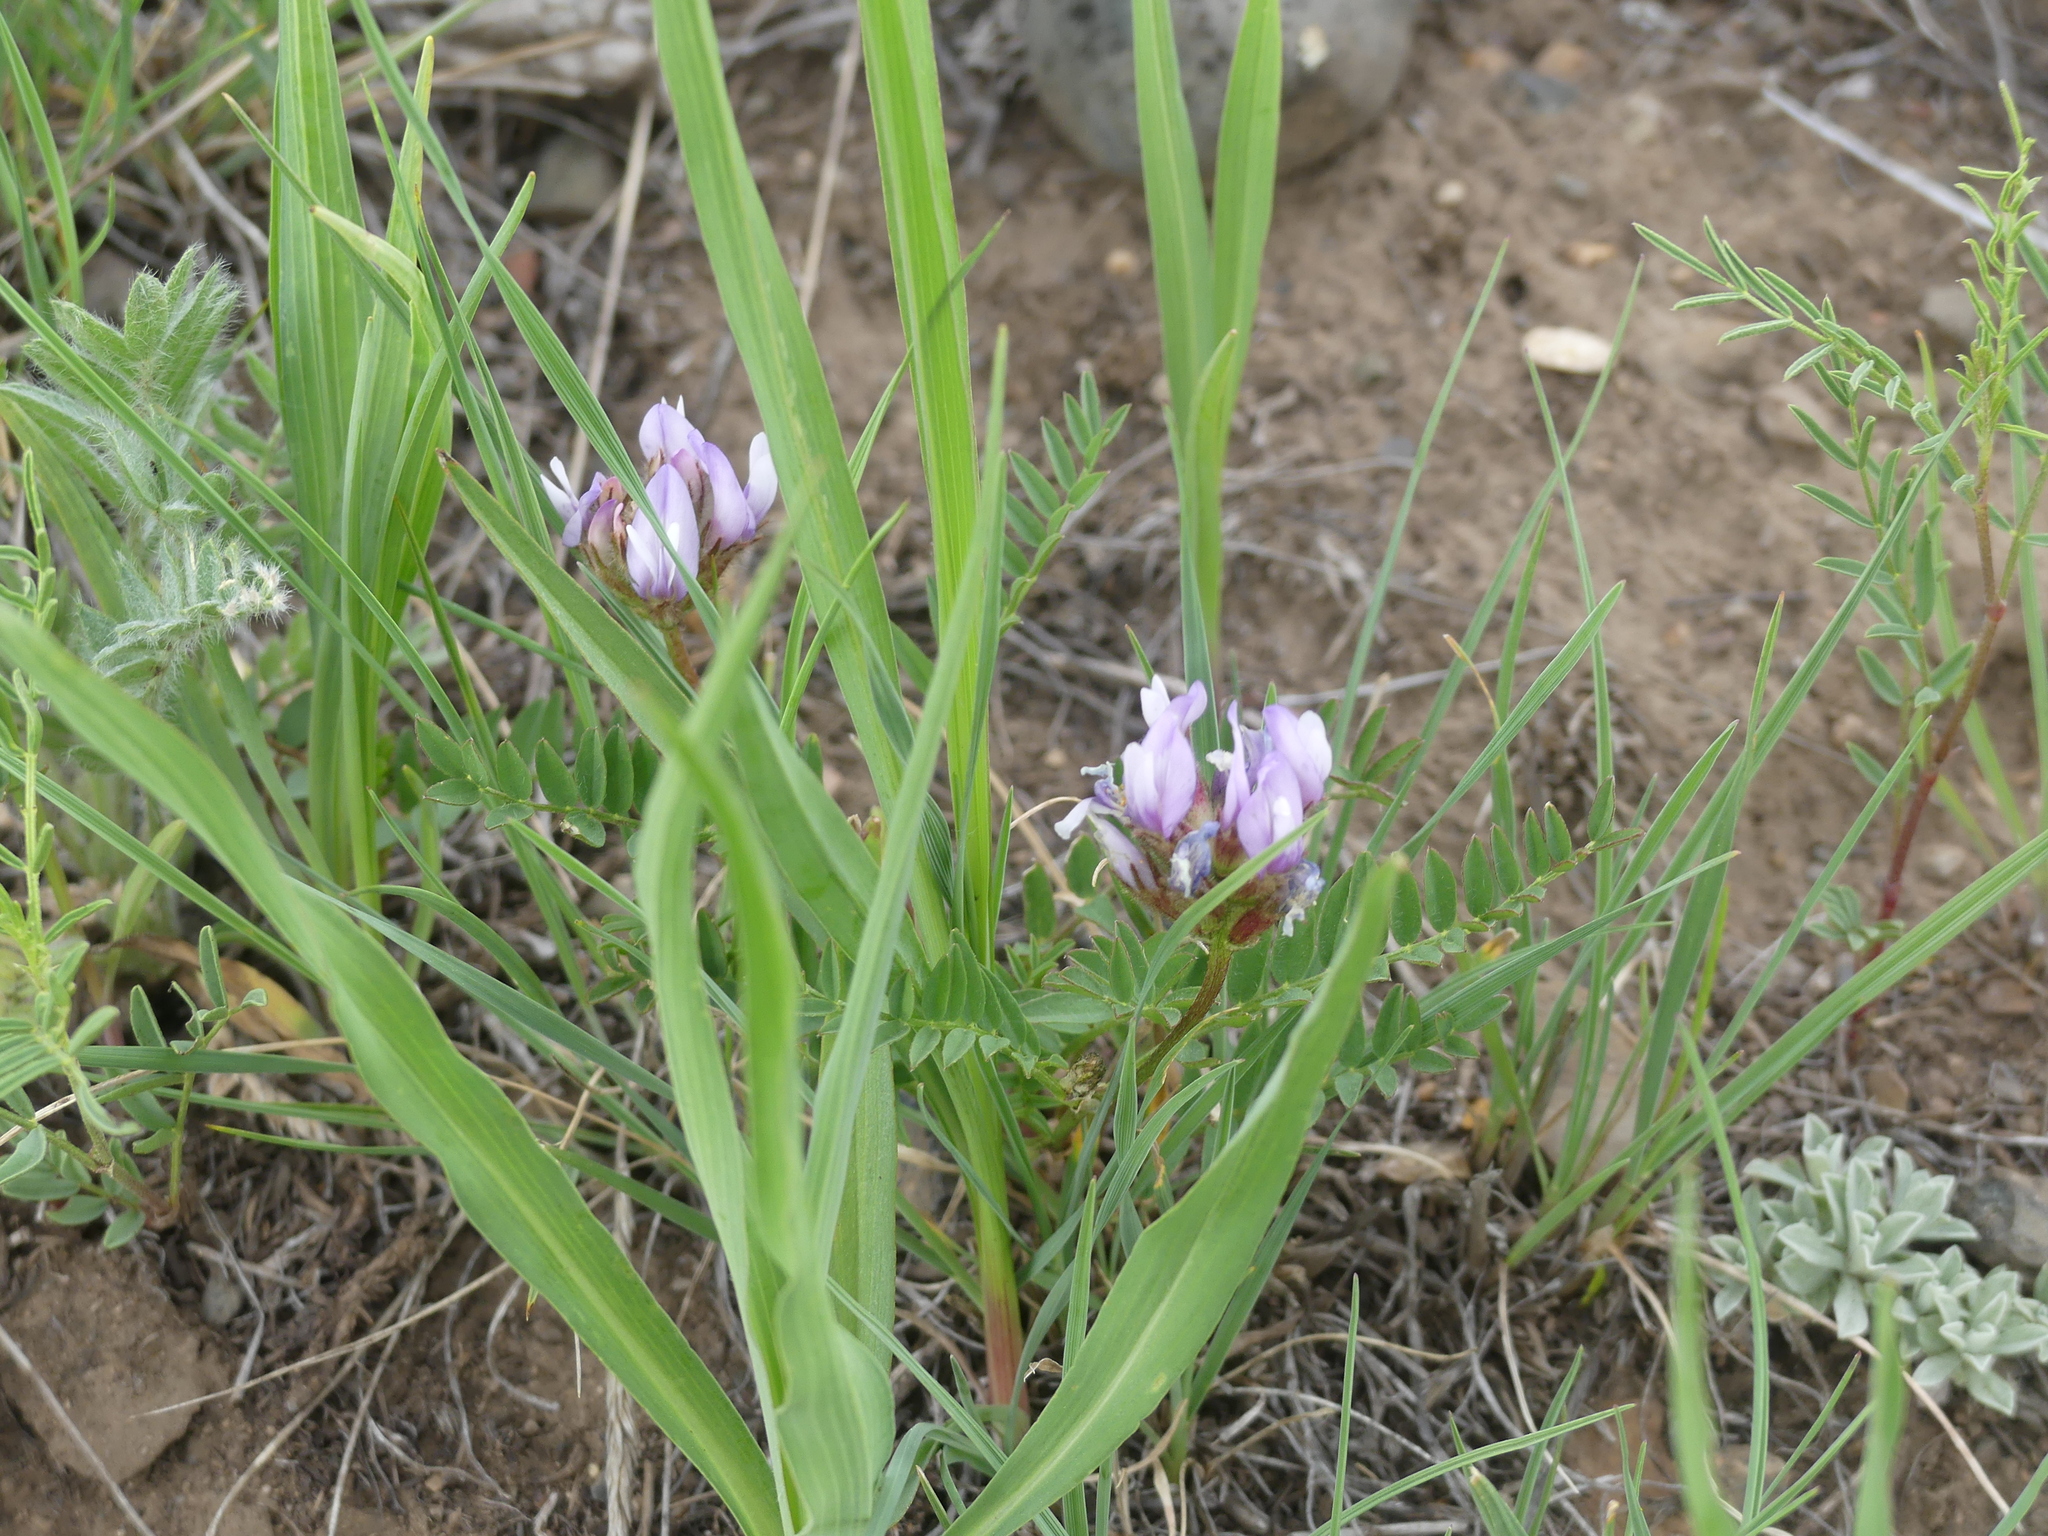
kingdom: Plantae
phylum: Tracheophyta
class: Magnoliopsida
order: Fabales
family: Fabaceae
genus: Astragalus
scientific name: Astragalus agrestis
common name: Field milk-vetch
